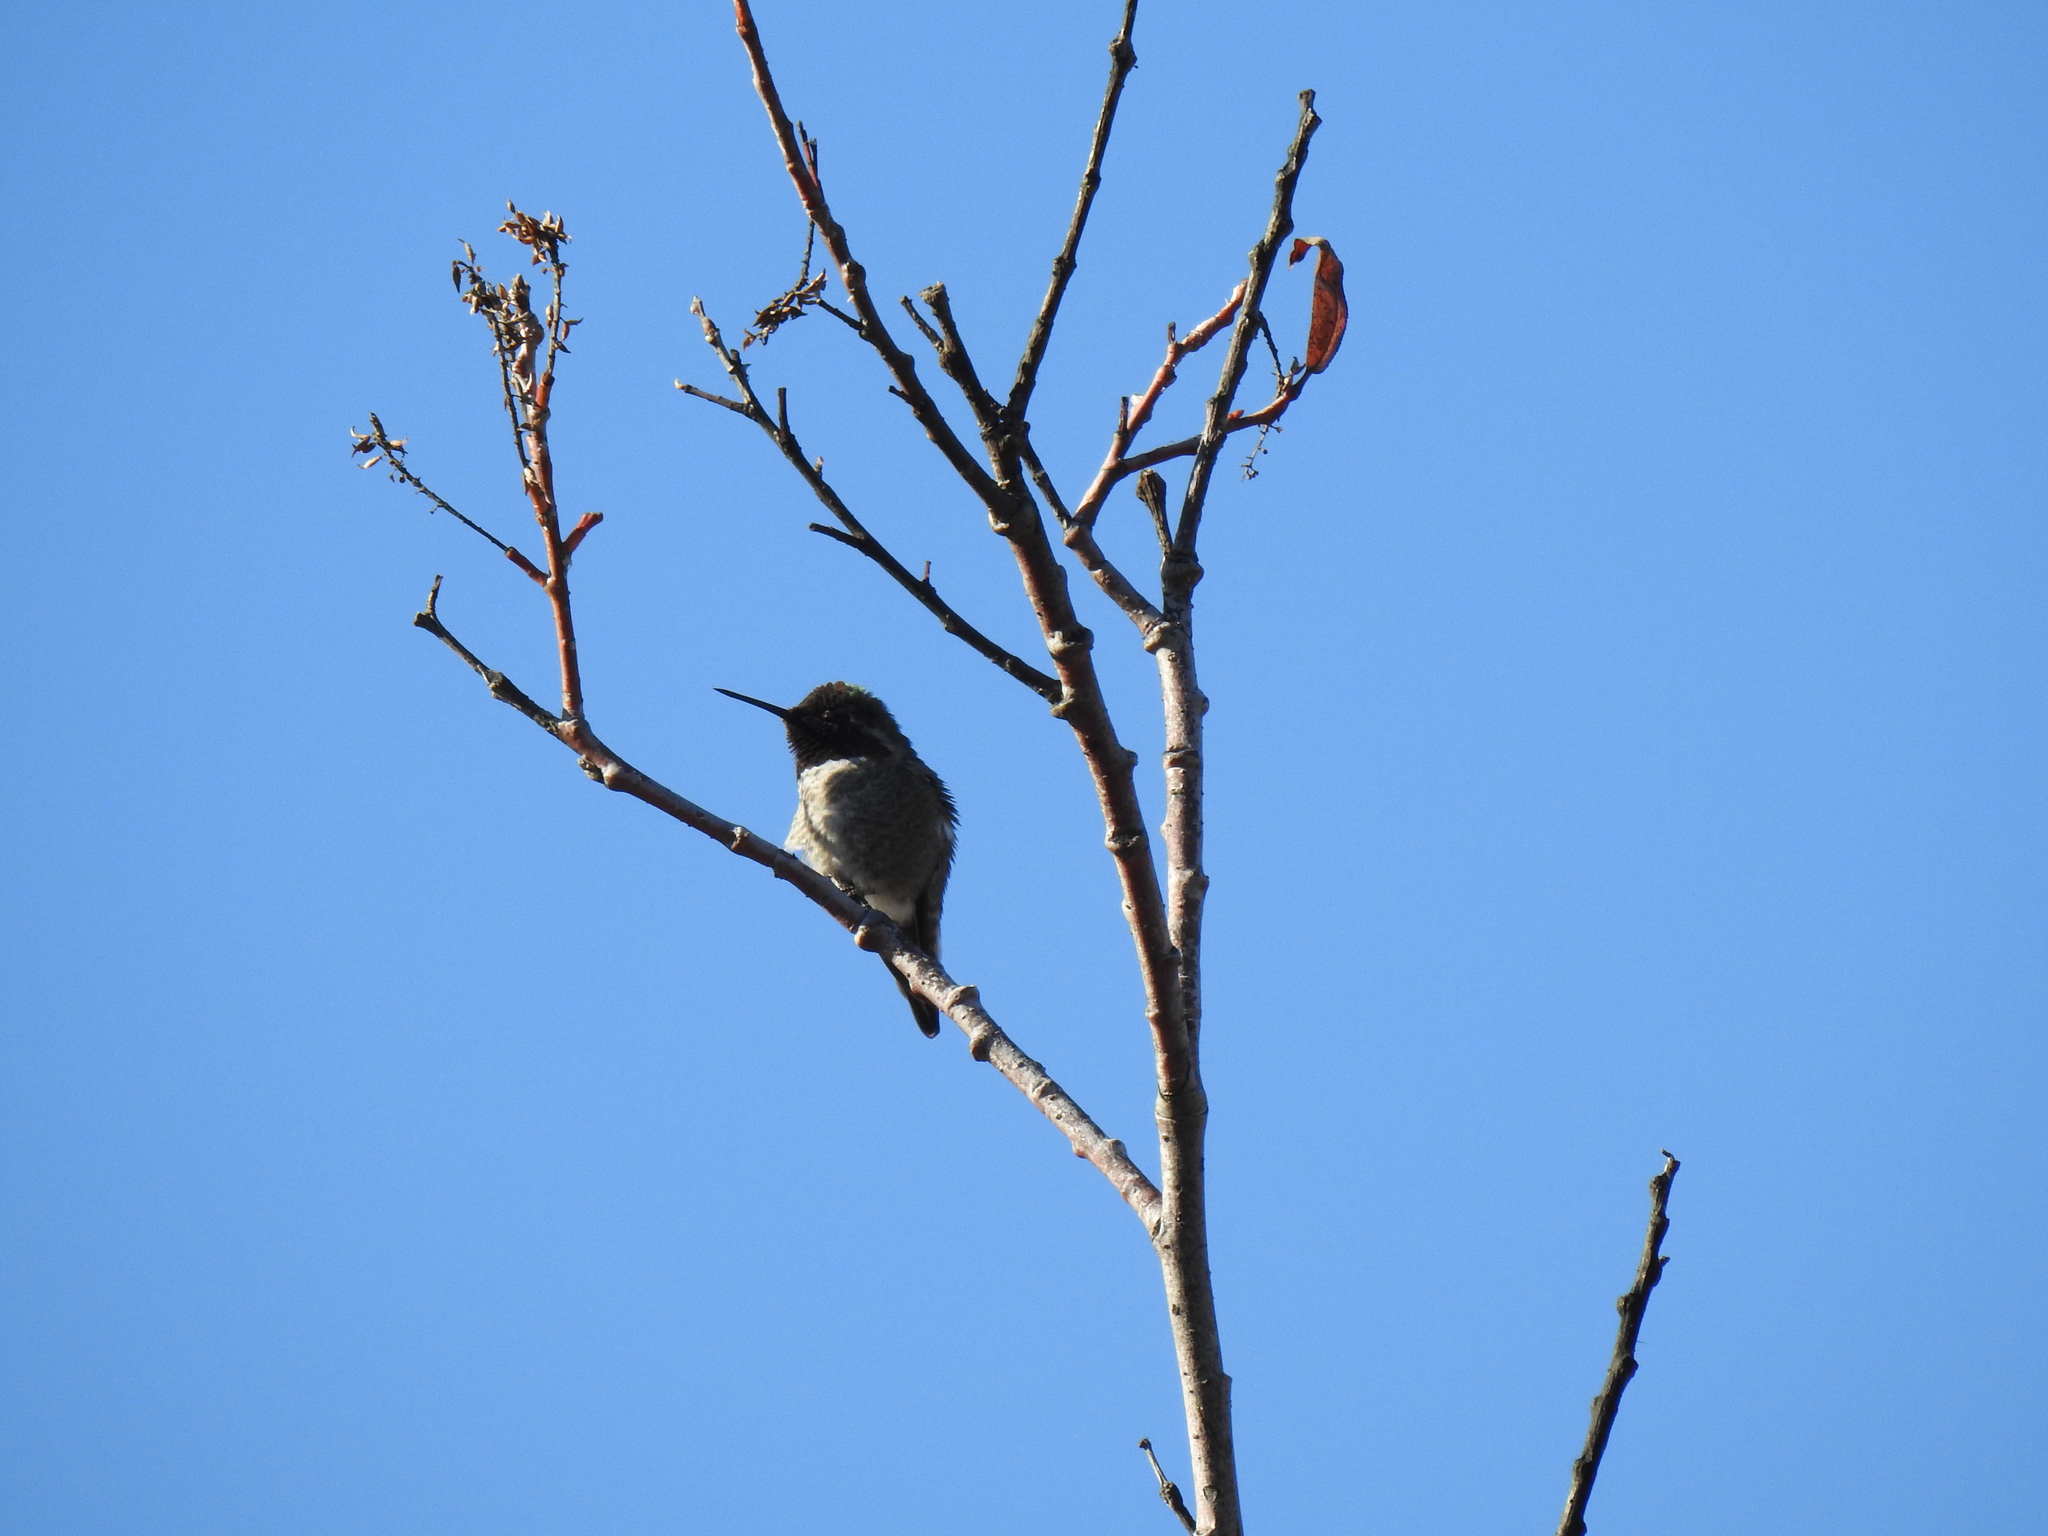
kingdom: Animalia
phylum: Chordata
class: Aves
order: Apodiformes
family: Trochilidae
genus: Calypte
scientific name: Calypte anna
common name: Anna's hummingbird
